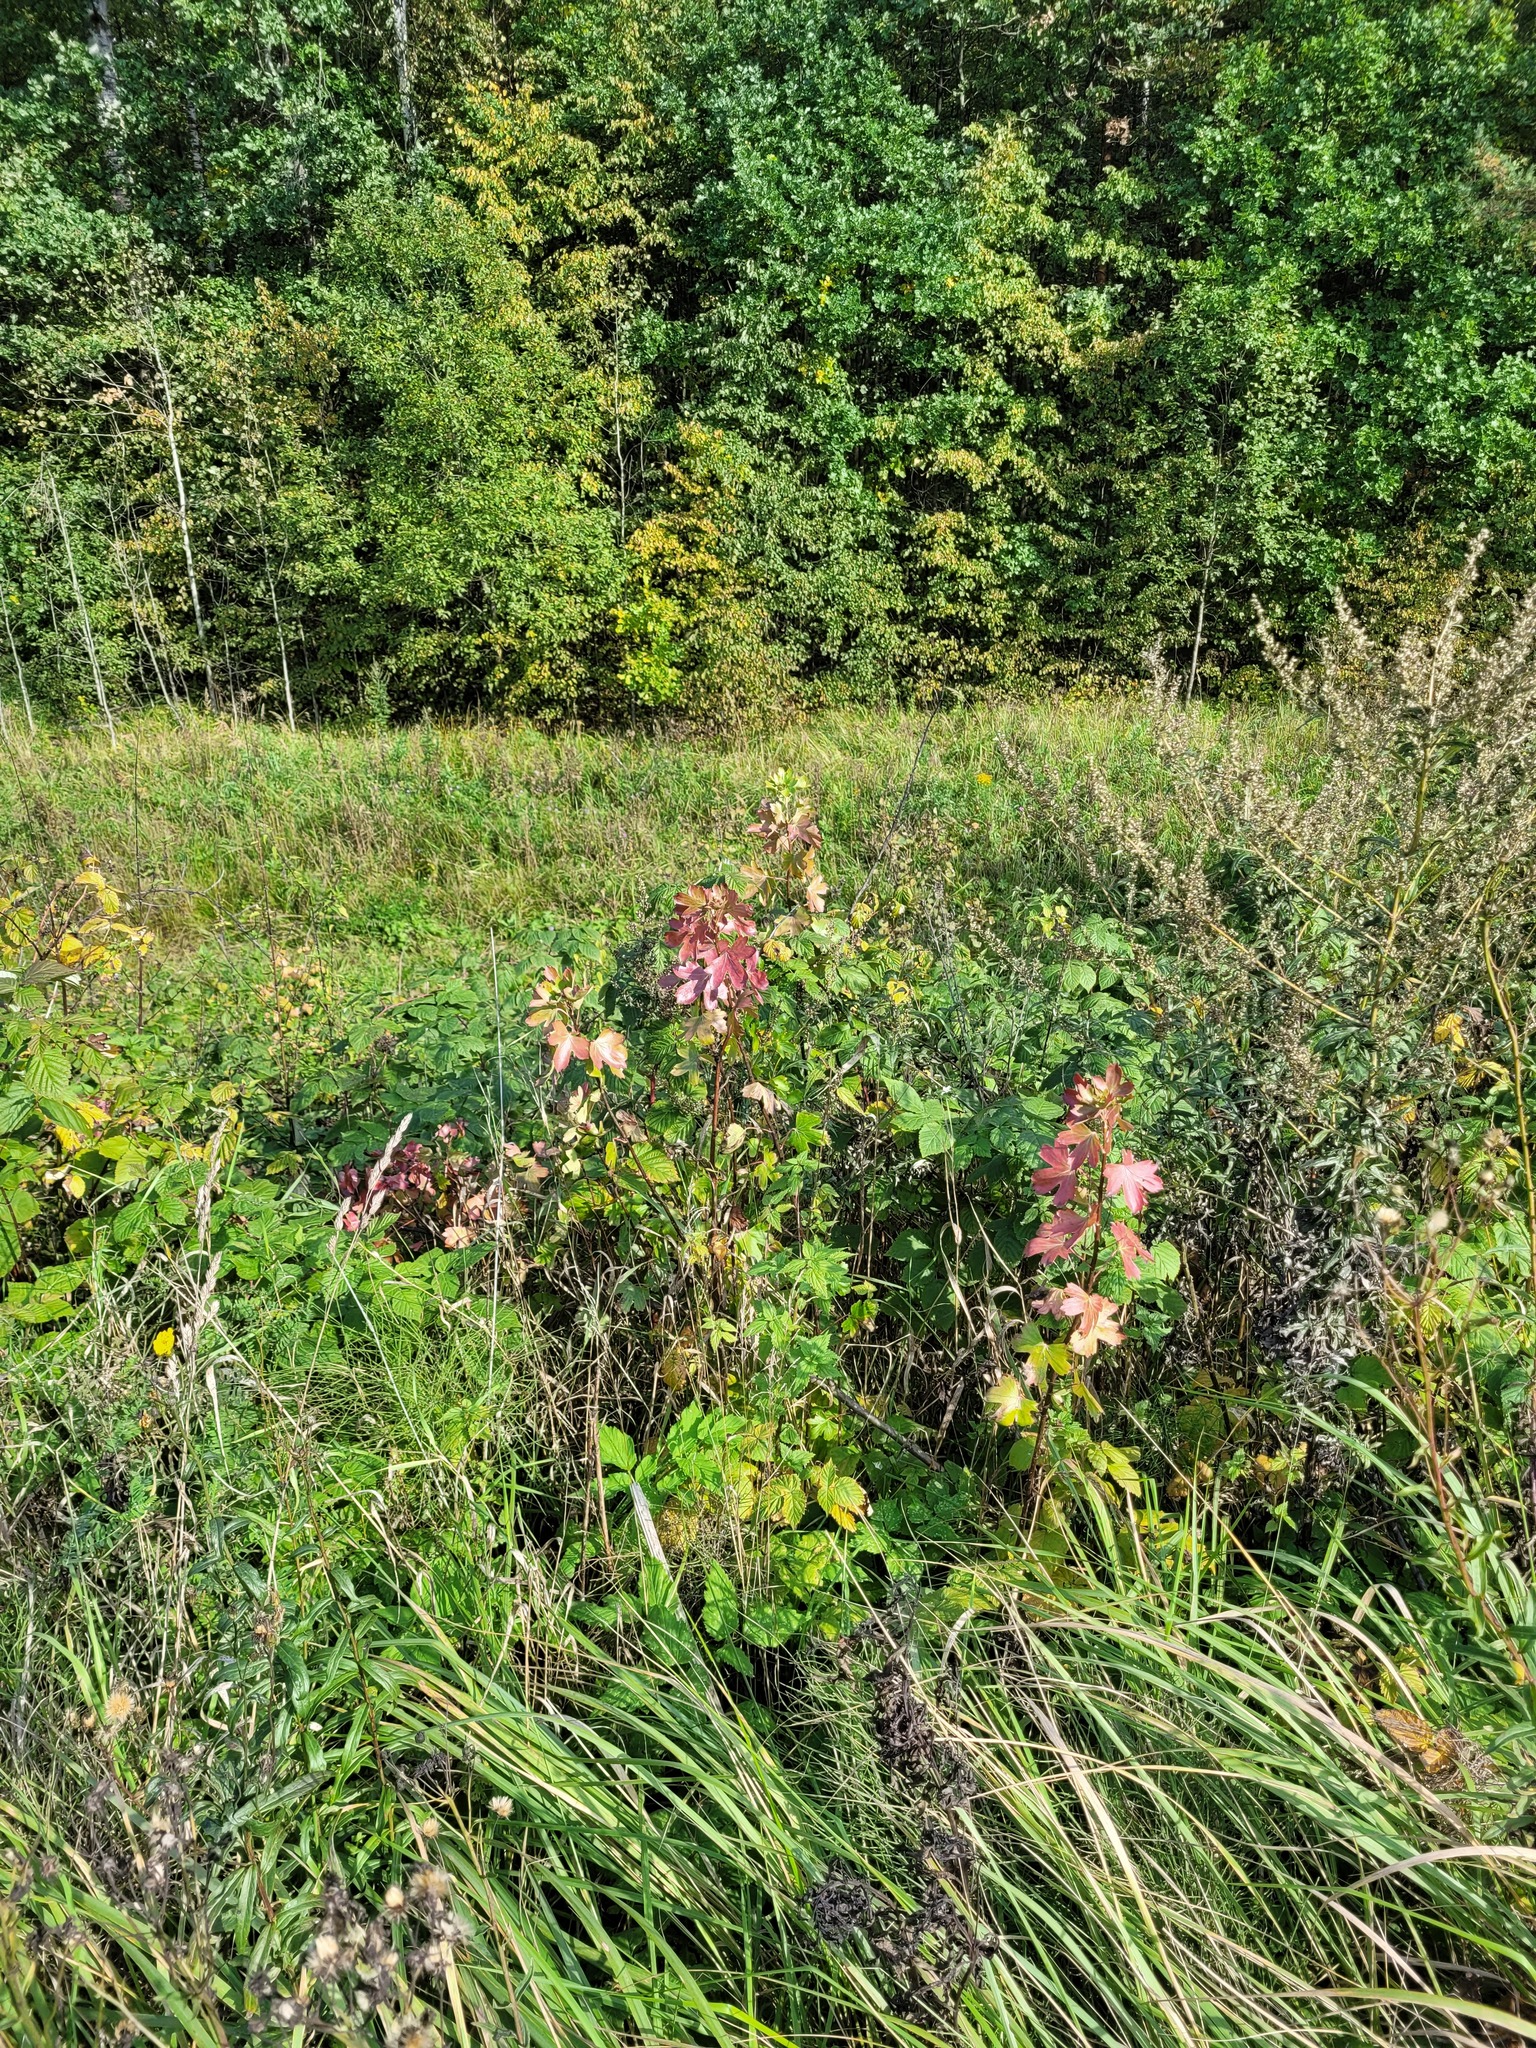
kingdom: Plantae
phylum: Tracheophyta
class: Magnoliopsida
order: Saxifragales
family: Grossulariaceae
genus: Ribes
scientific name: Ribes aureum
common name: Golden currant
